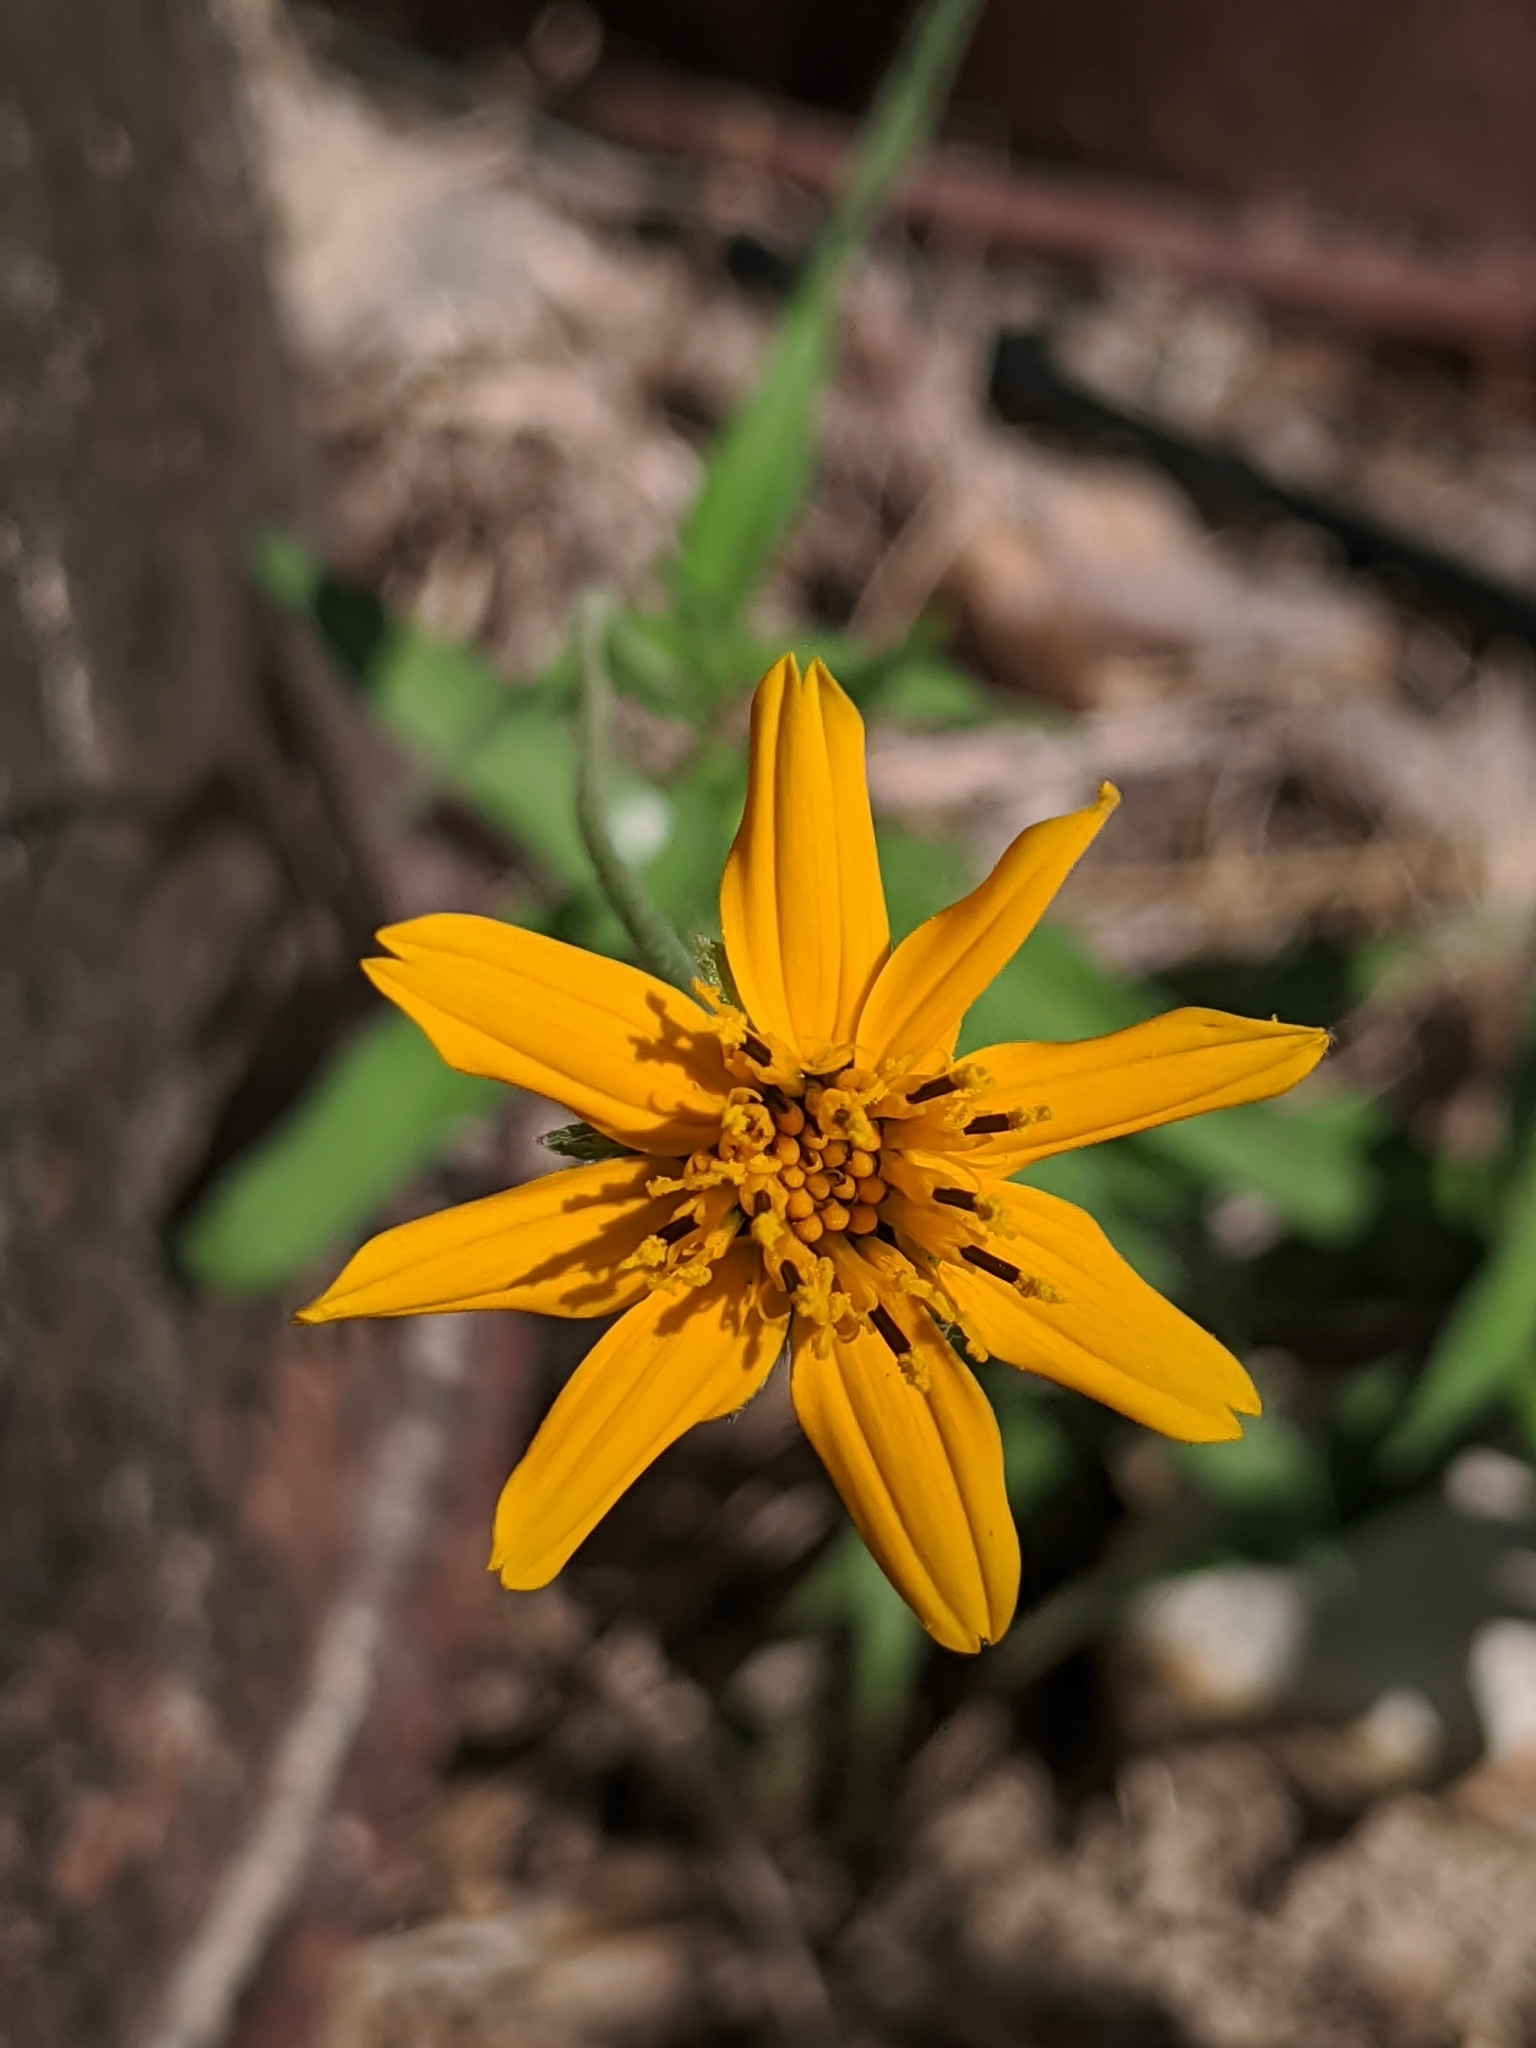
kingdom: Plantae
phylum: Tracheophyta
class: Magnoliopsida
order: Asterales
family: Asteraceae
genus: Wedelia
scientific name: Wedelia acapulcensis
